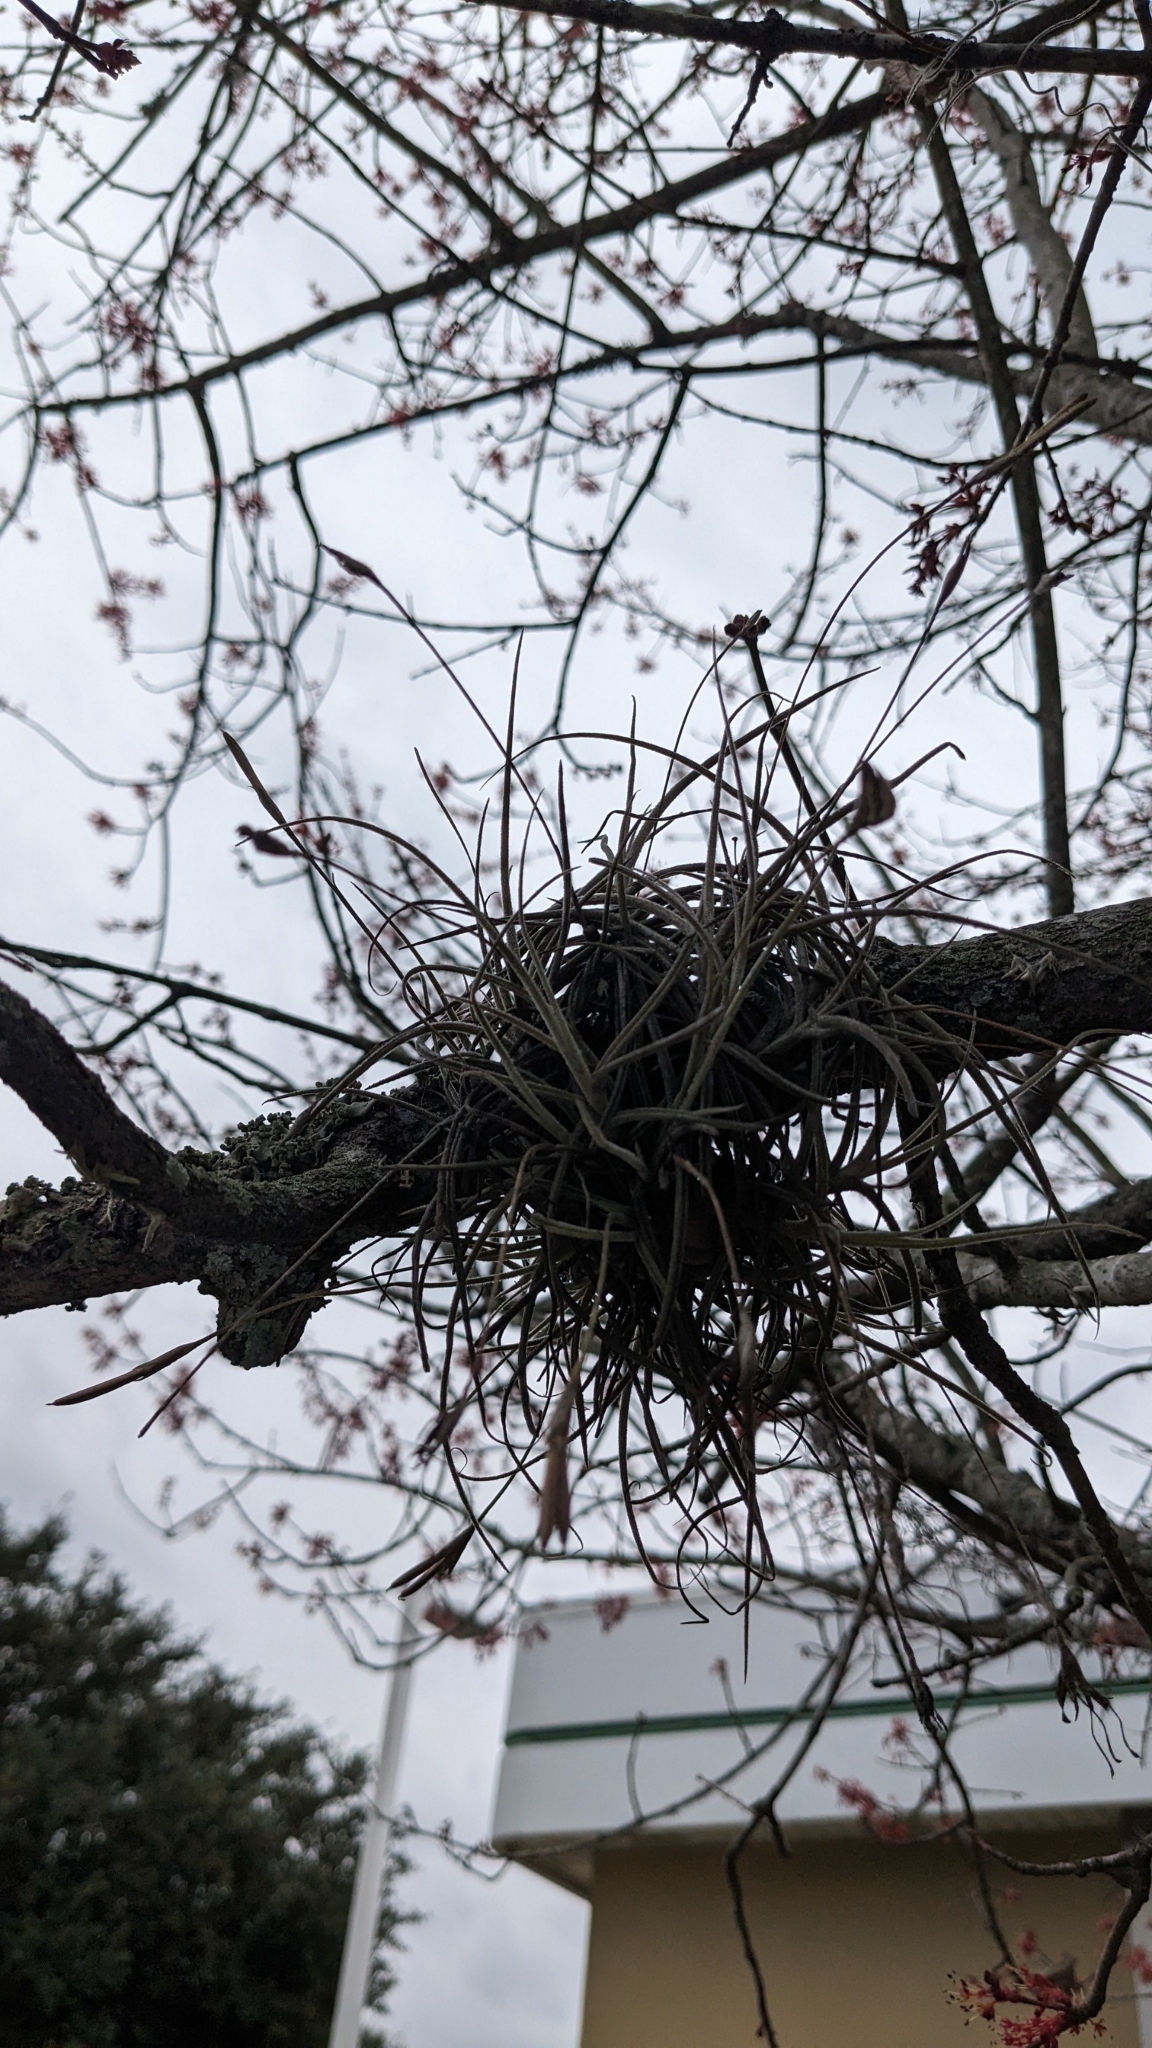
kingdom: Plantae
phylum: Tracheophyta
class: Liliopsida
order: Poales
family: Bromeliaceae
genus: Tillandsia
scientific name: Tillandsia recurvata
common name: Small ballmoss
